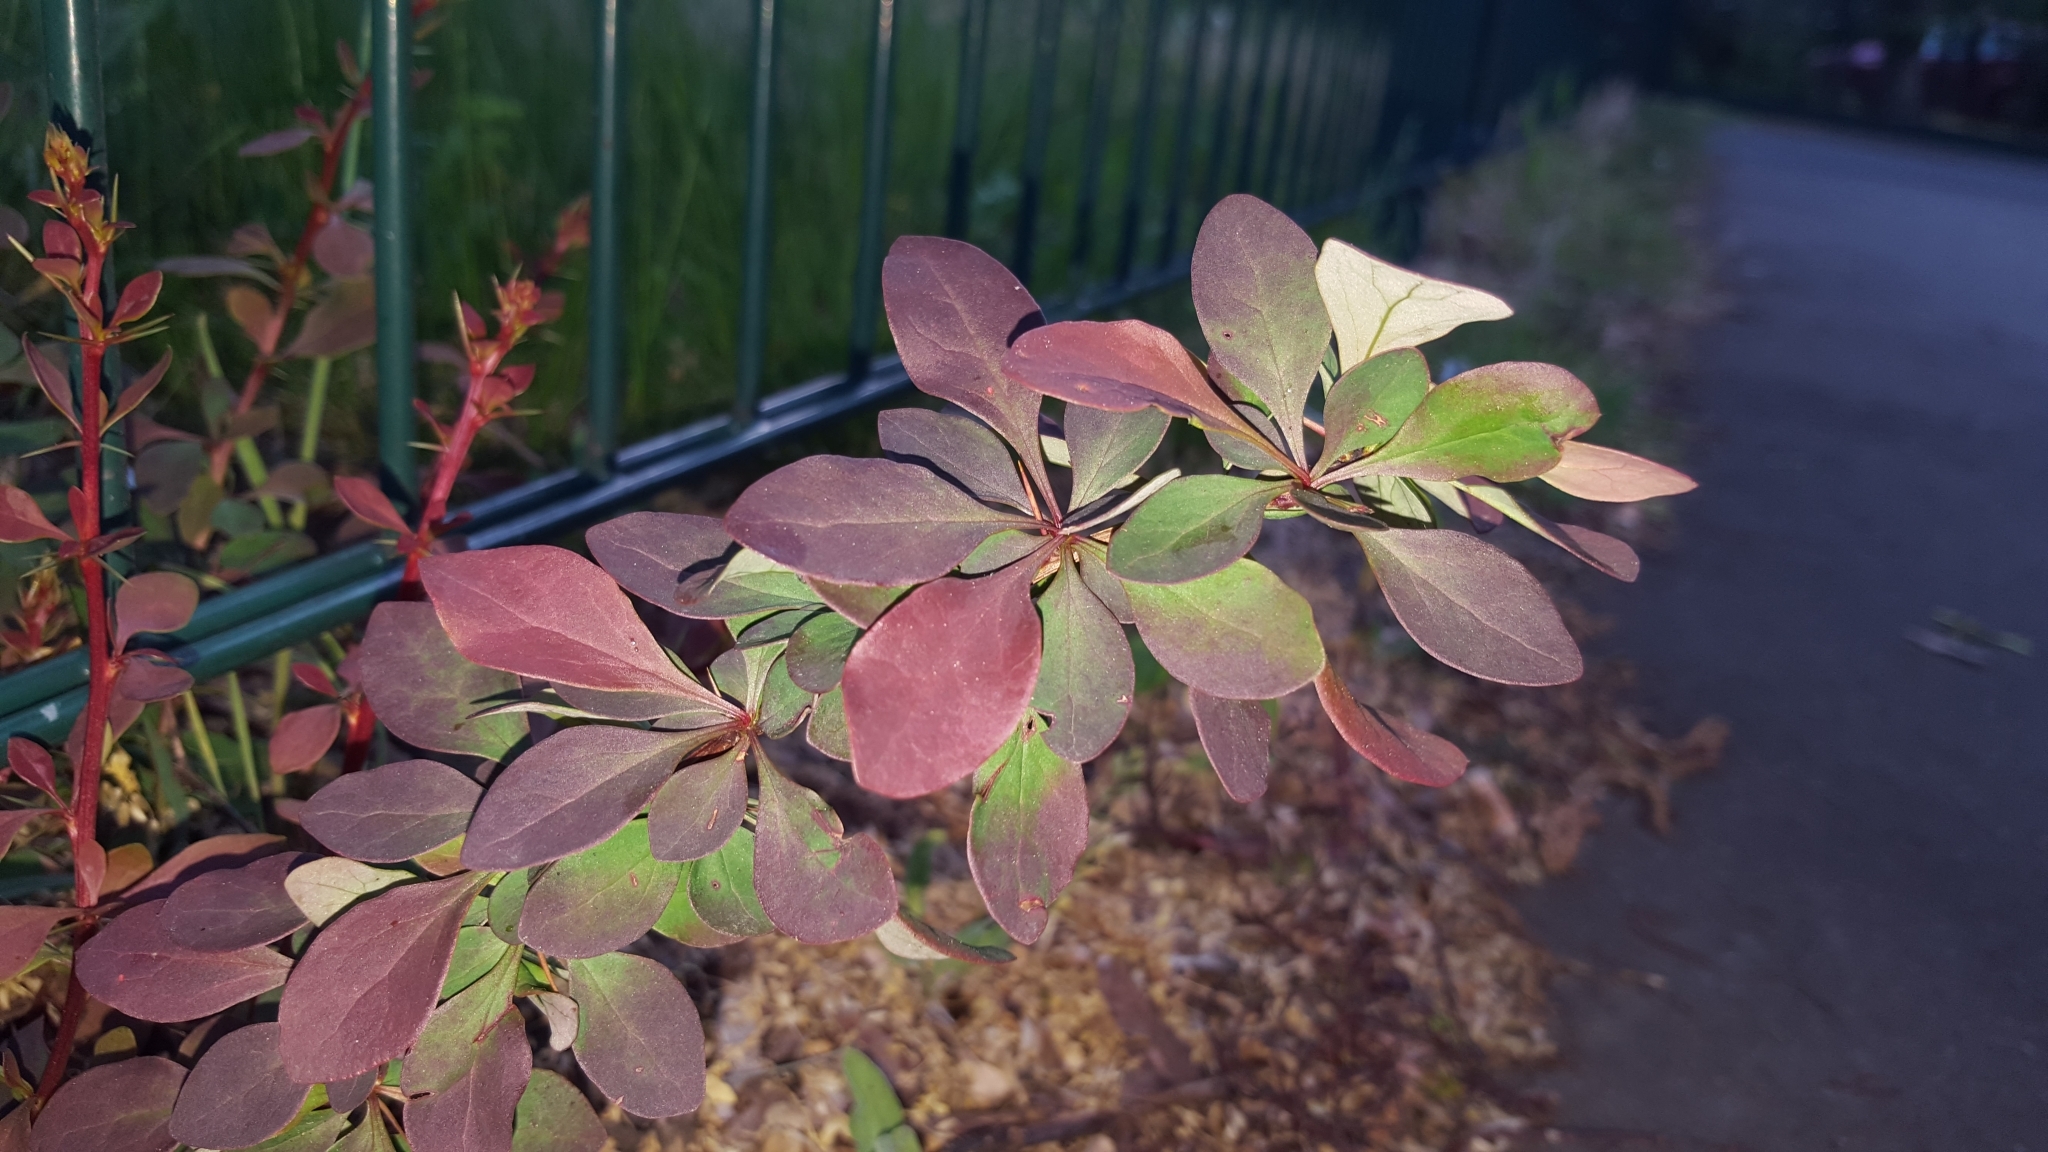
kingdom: Plantae
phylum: Tracheophyta
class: Magnoliopsida
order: Ranunculales
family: Berberidaceae
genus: Berberis
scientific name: Berberis thunbergii
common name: Japanese barberry
